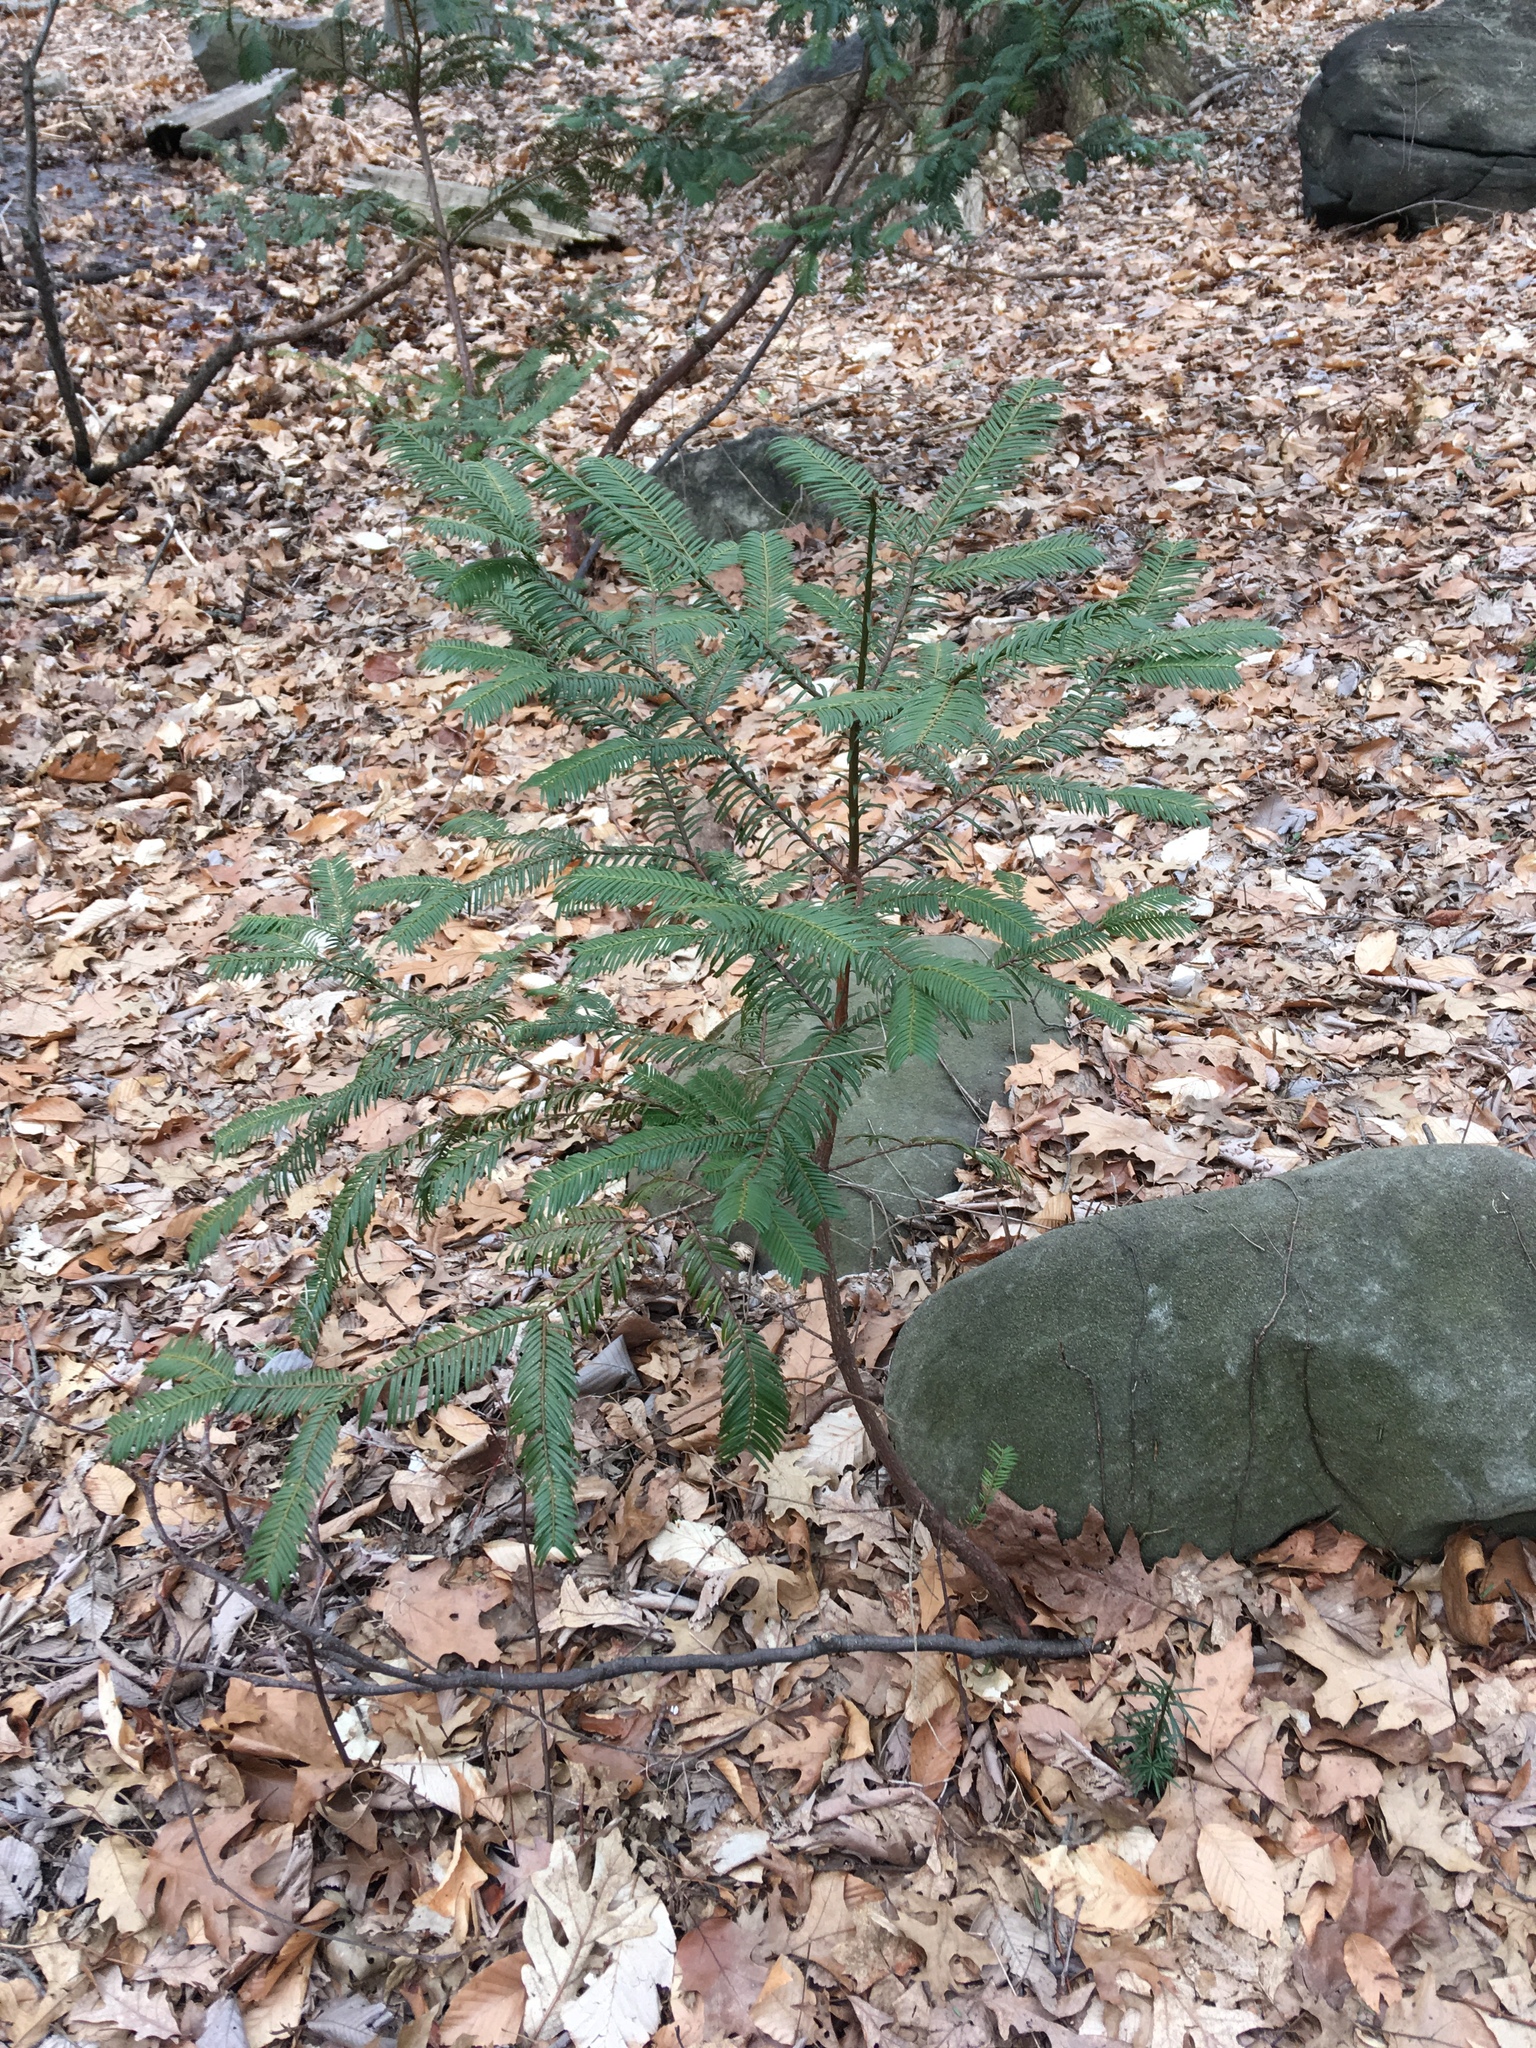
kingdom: Plantae
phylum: Tracheophyta
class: Pinopsida
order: Pinales
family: Cephalotaxaceae
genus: Cephalotaxus
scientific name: Cephalotaxus harringtonia
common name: Japanese plum-yew
